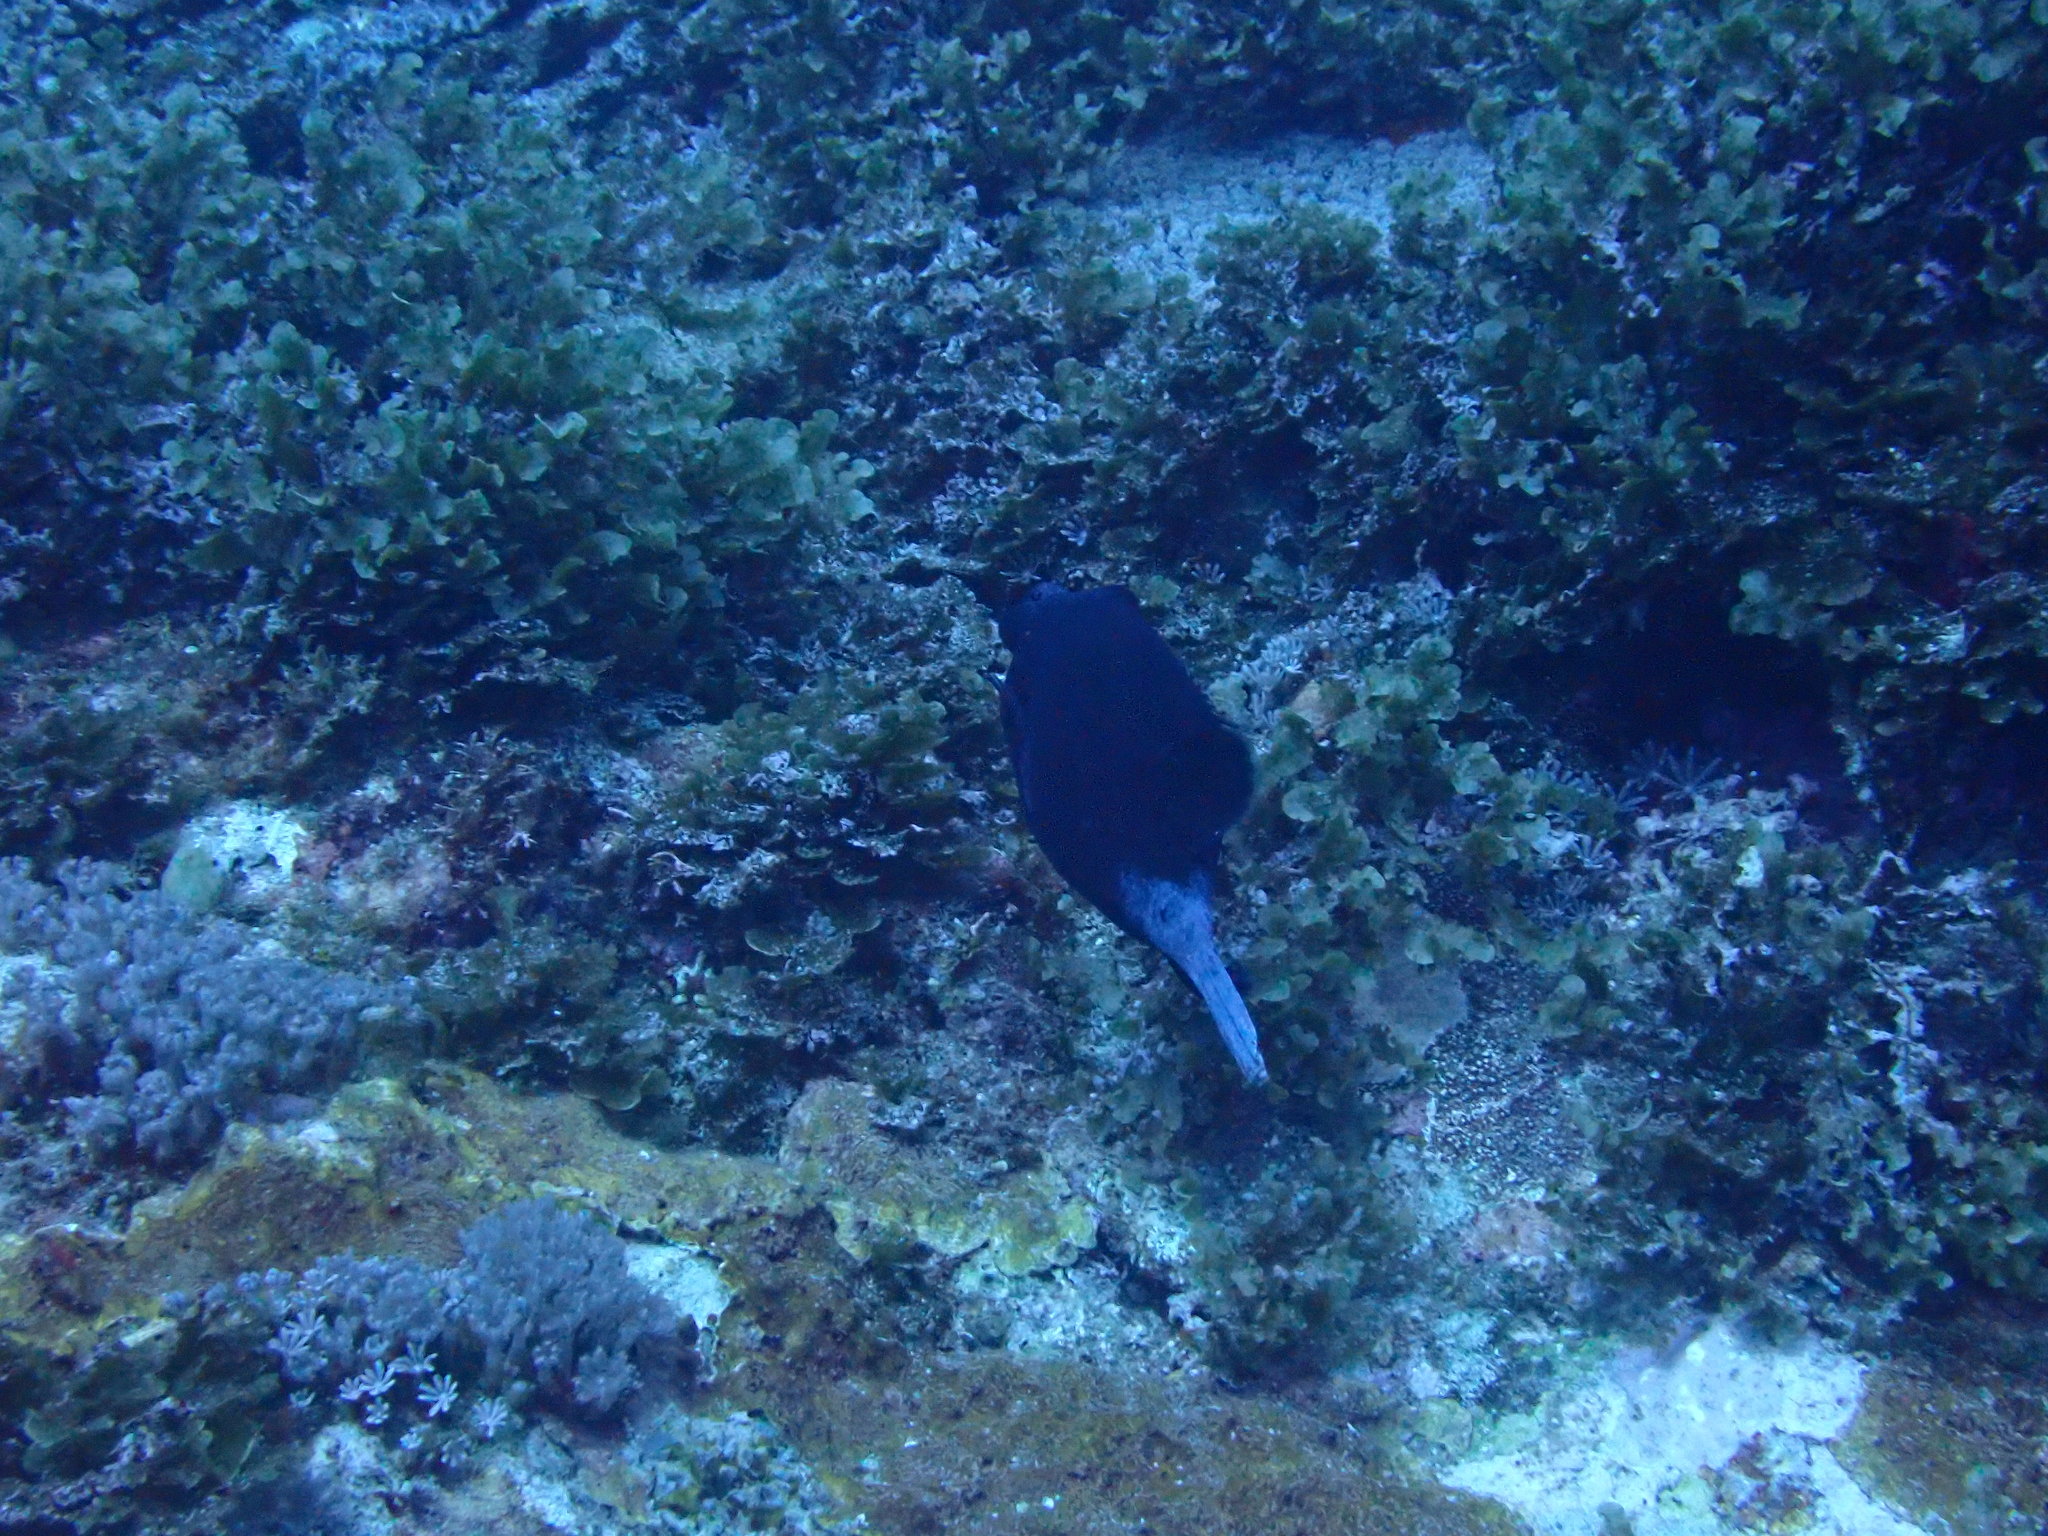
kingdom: Animalia
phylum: Chordata
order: Tetraodontiformes
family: Tetraodontidae
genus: Arothron
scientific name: Arothron nigropunctatus
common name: Black spotted blow fish
